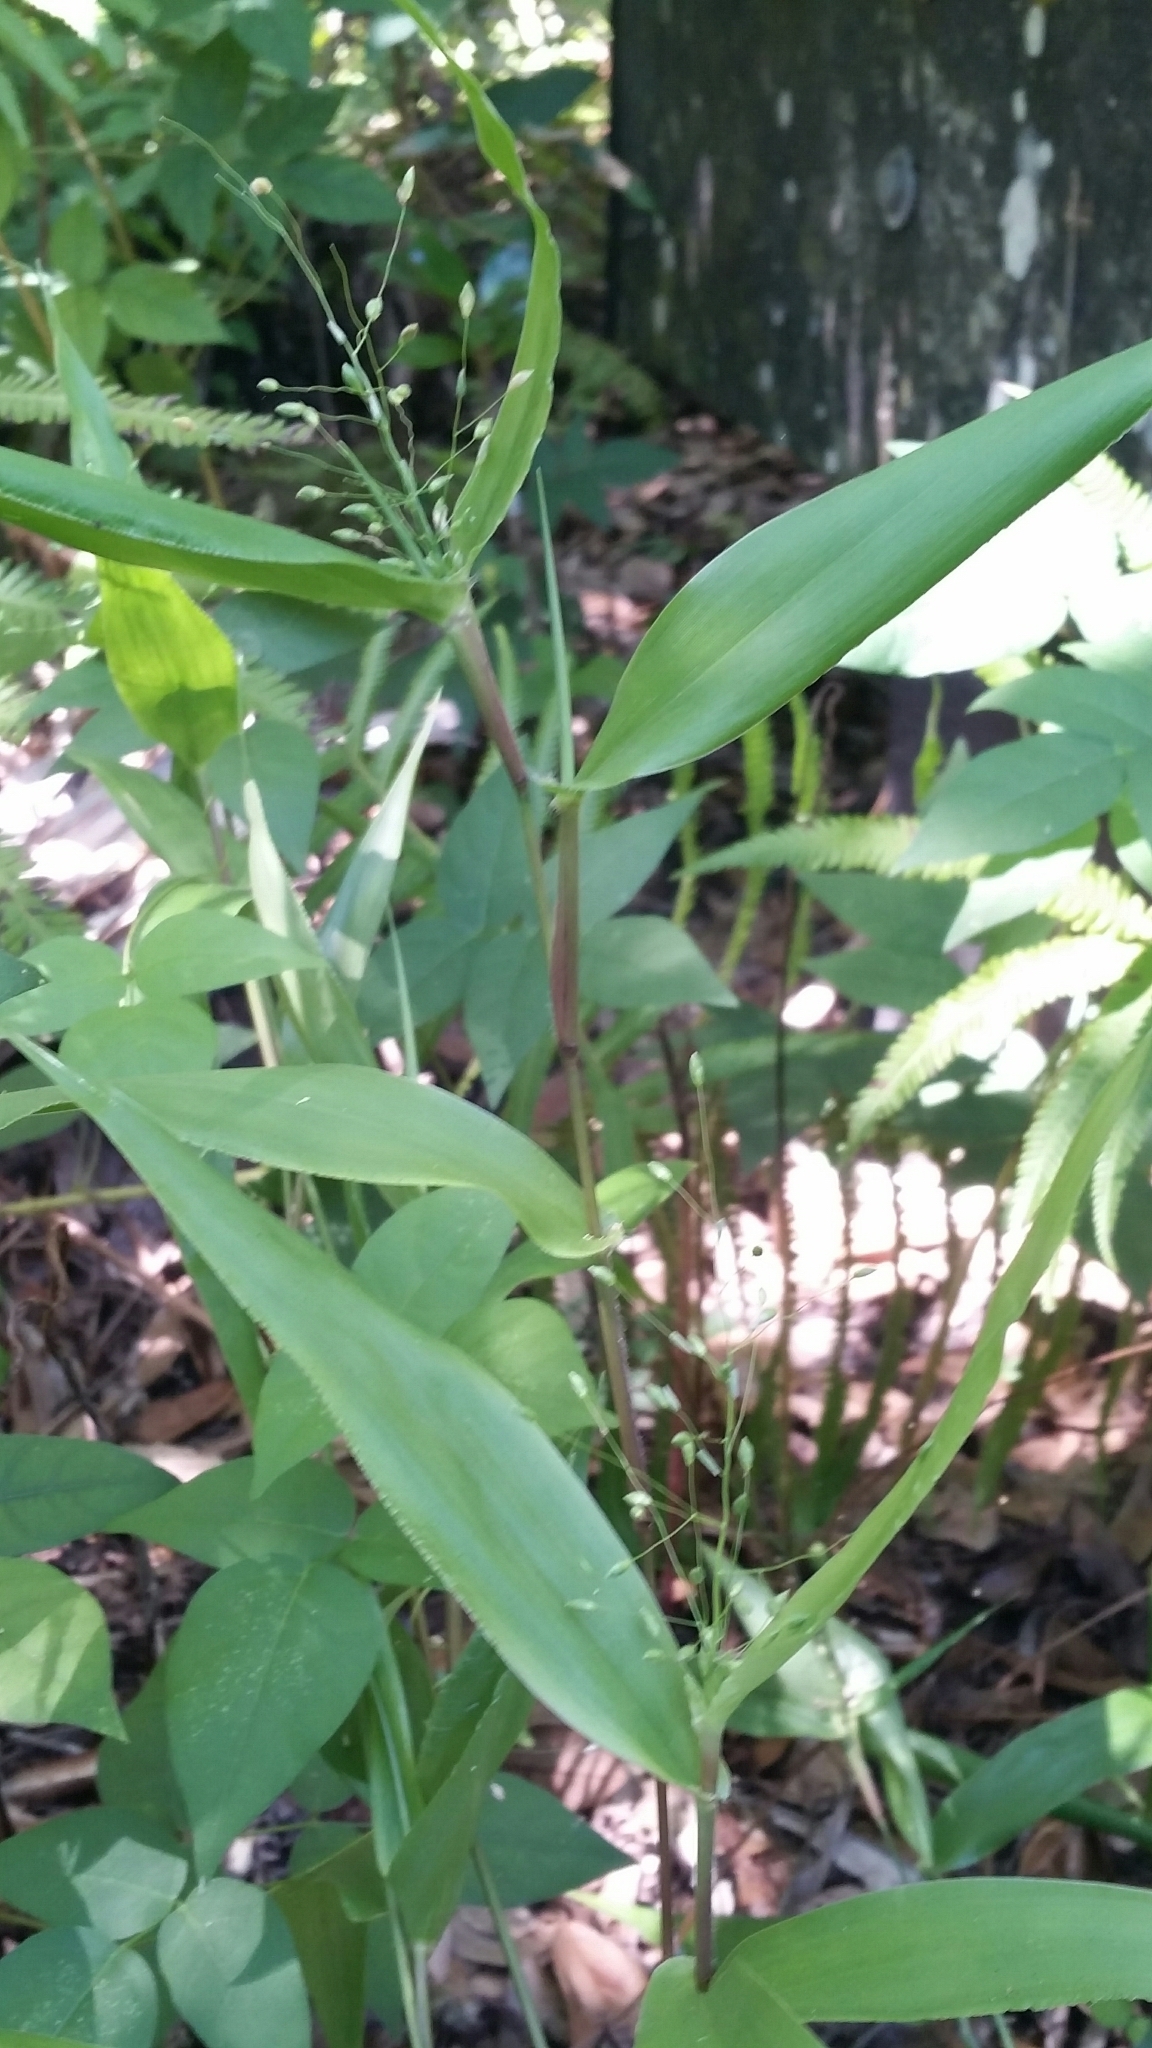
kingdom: Plantae
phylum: Tracheophyta
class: Liliopsida
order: Poales
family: Poaceae
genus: Dichanthelium
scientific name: Dichanthelium commutatum
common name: Variable witchgrass
